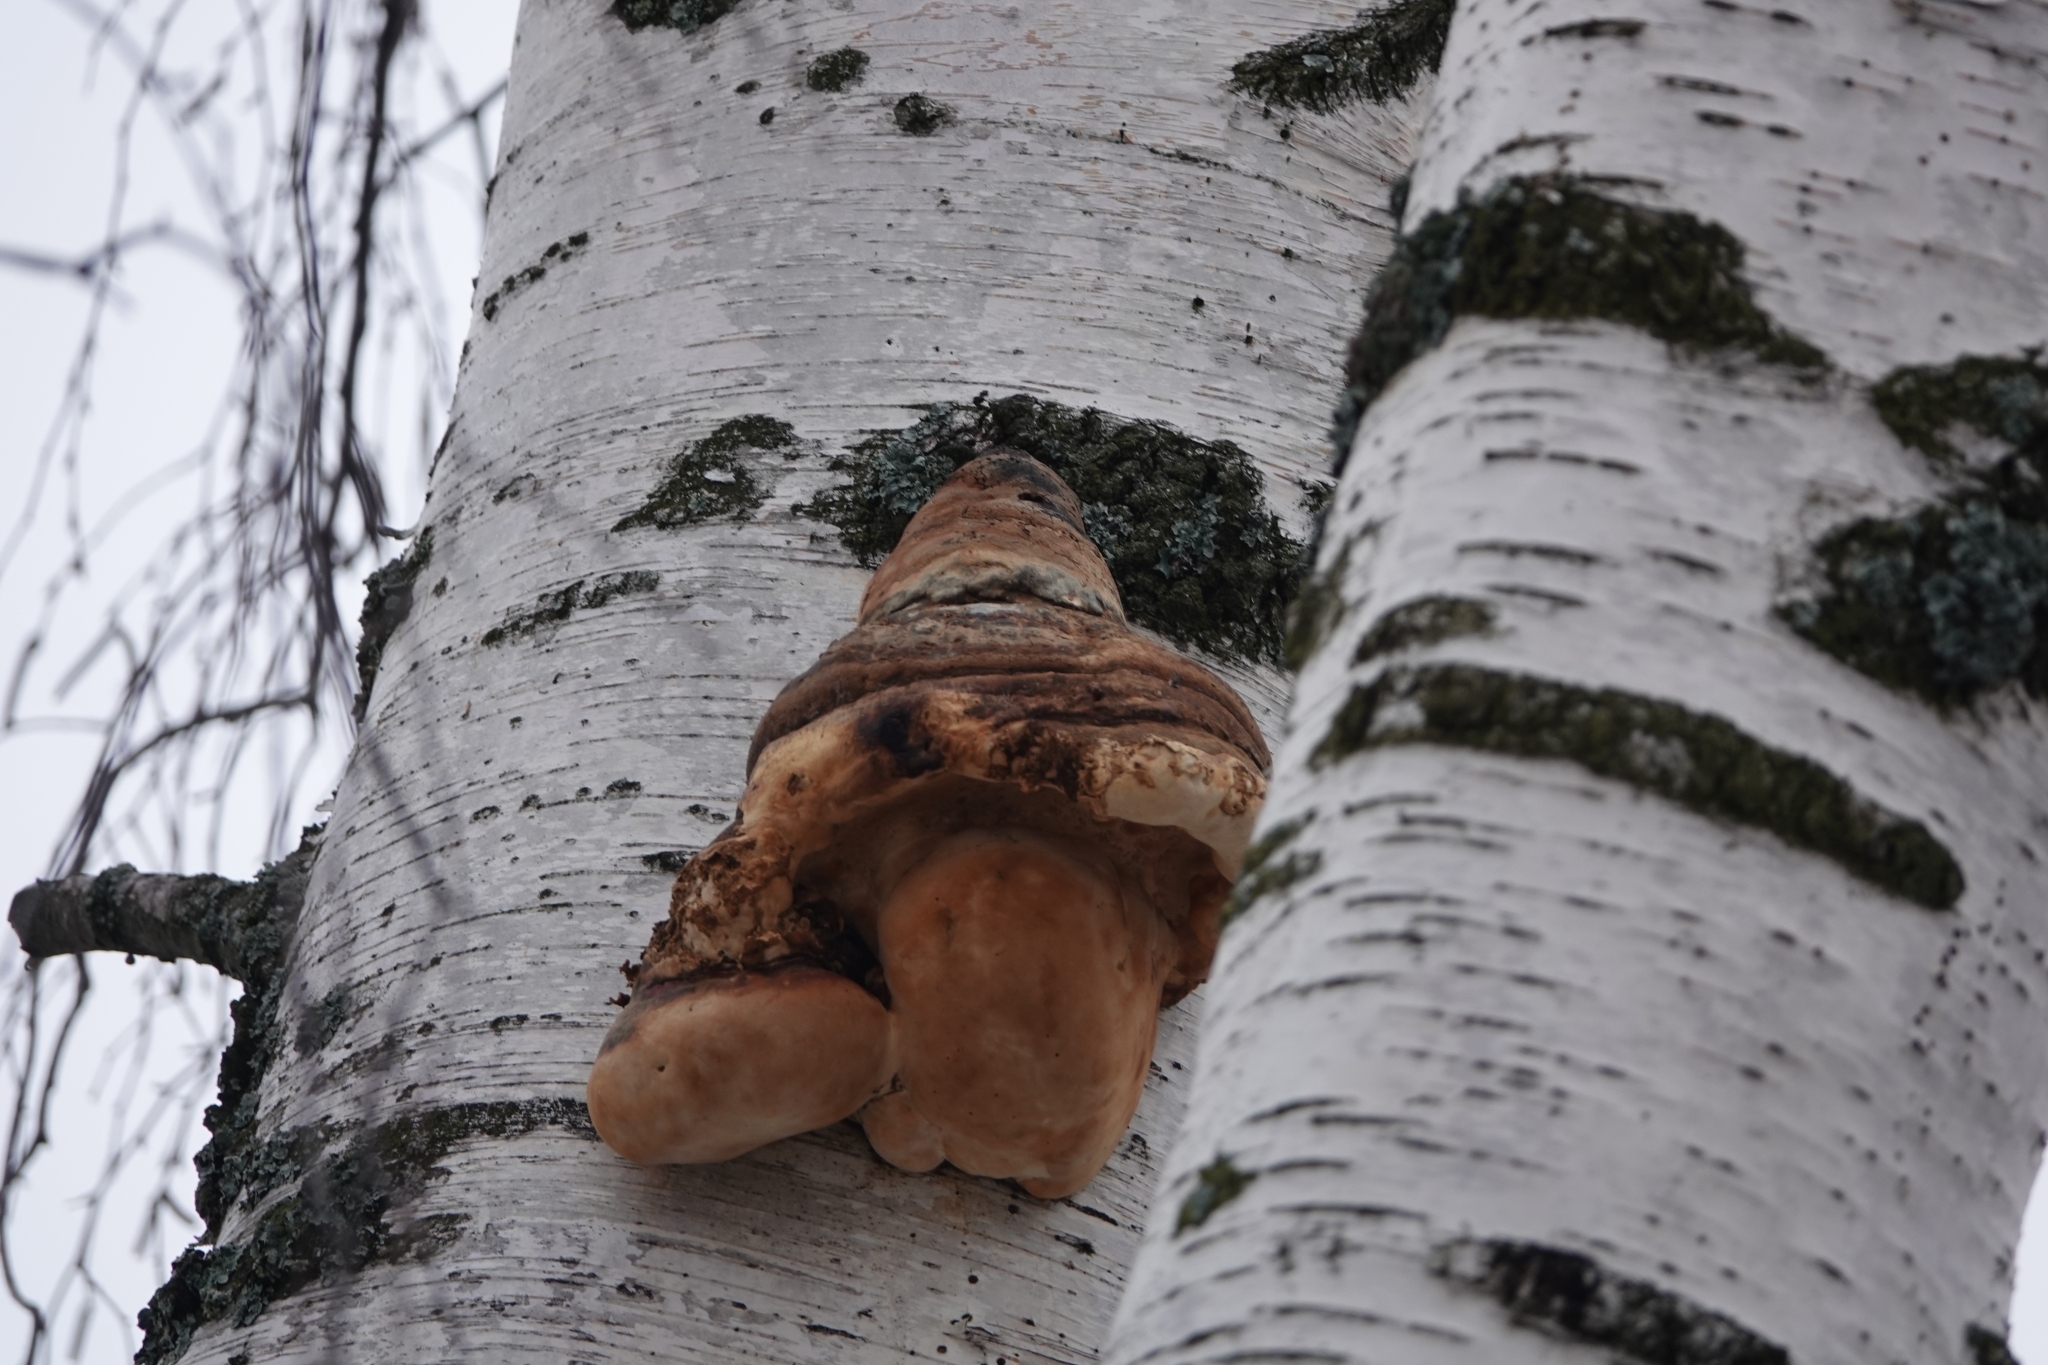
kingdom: Fungi
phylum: Basidiomycota
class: Agaricomycetes
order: Polyporales
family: Polyporaceae
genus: Fomes
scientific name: Fomes fomentarius
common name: Hoof fungus
